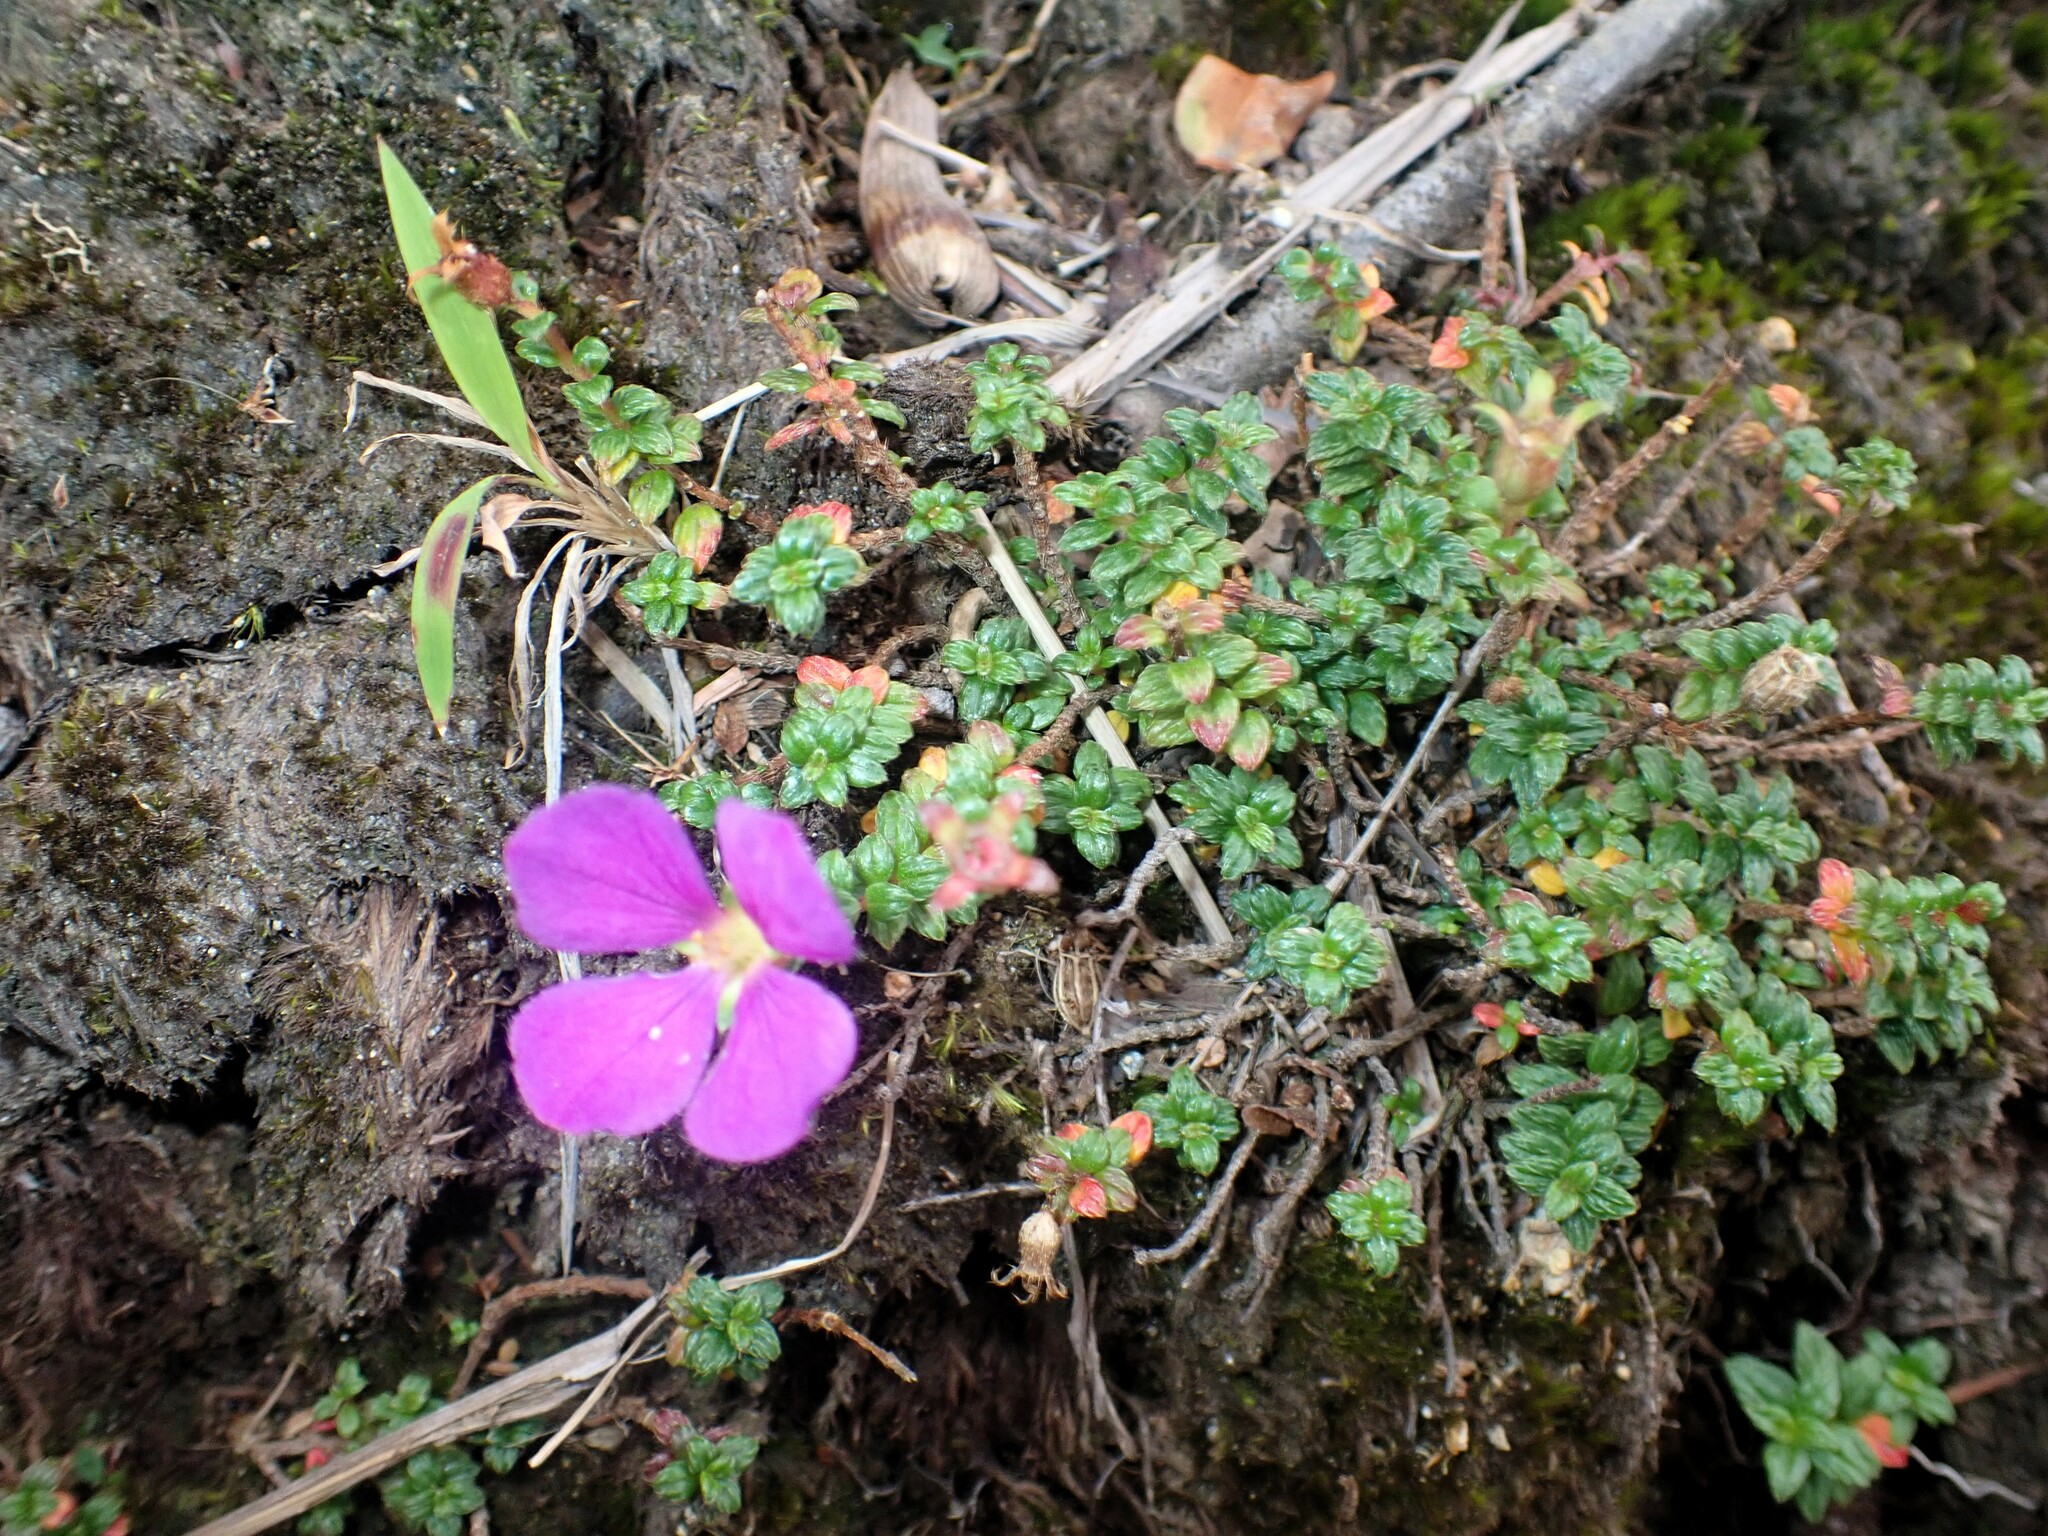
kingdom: Plantae
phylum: Tracheophyta
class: Magnoliopsida
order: Myrtales
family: Melastomataceae
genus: Chaetogastra
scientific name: Chaetogastra ornata
